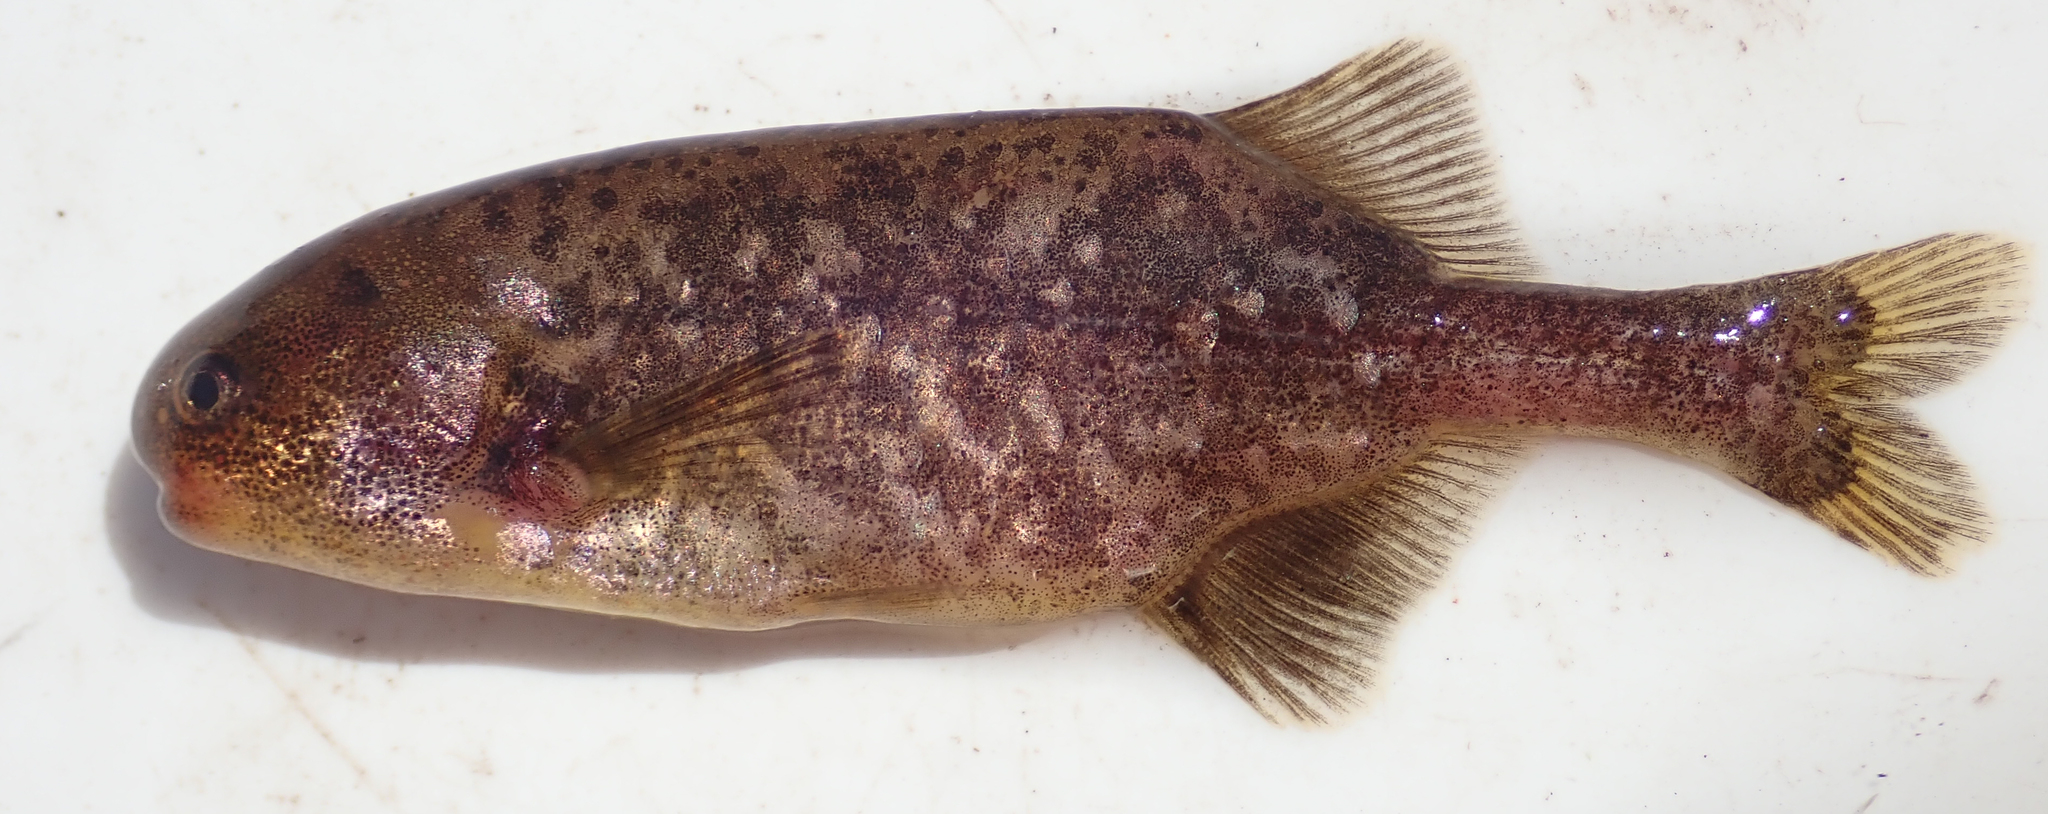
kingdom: Animalia
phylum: Chordata
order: Osteoglossiformes
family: Mormyridae
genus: Pollimyrus
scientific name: Pollimyrus cuandoensis
